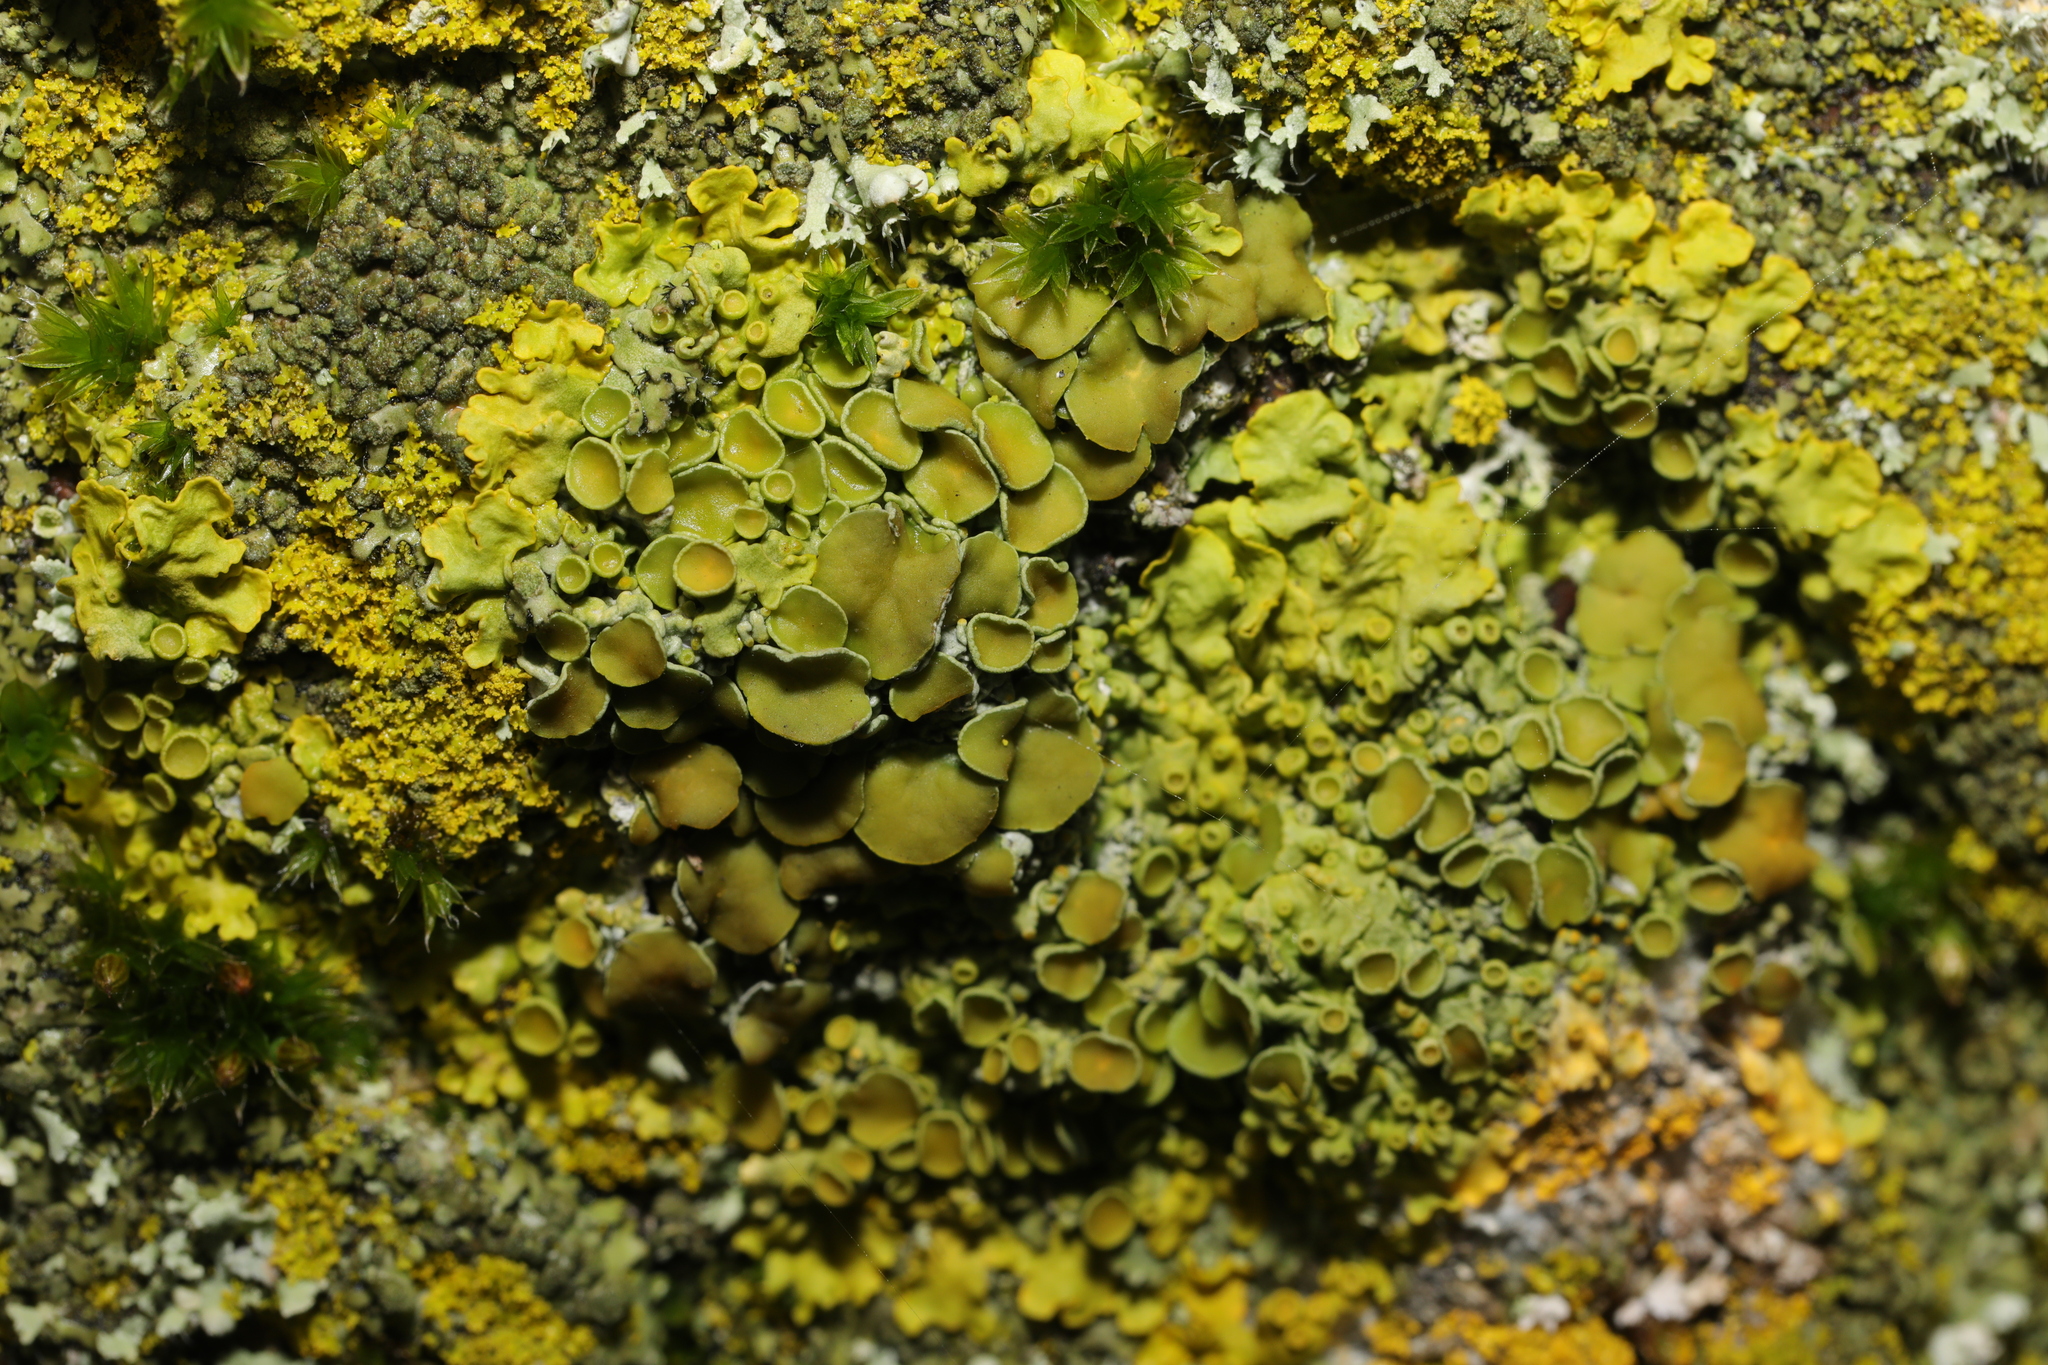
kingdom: Fungi
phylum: Ascomycota
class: Lecanoromycetes
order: Teloschistales
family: Teloschistaceae
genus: Xanthoria
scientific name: Xanthoria parietina
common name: Common orange lichen
